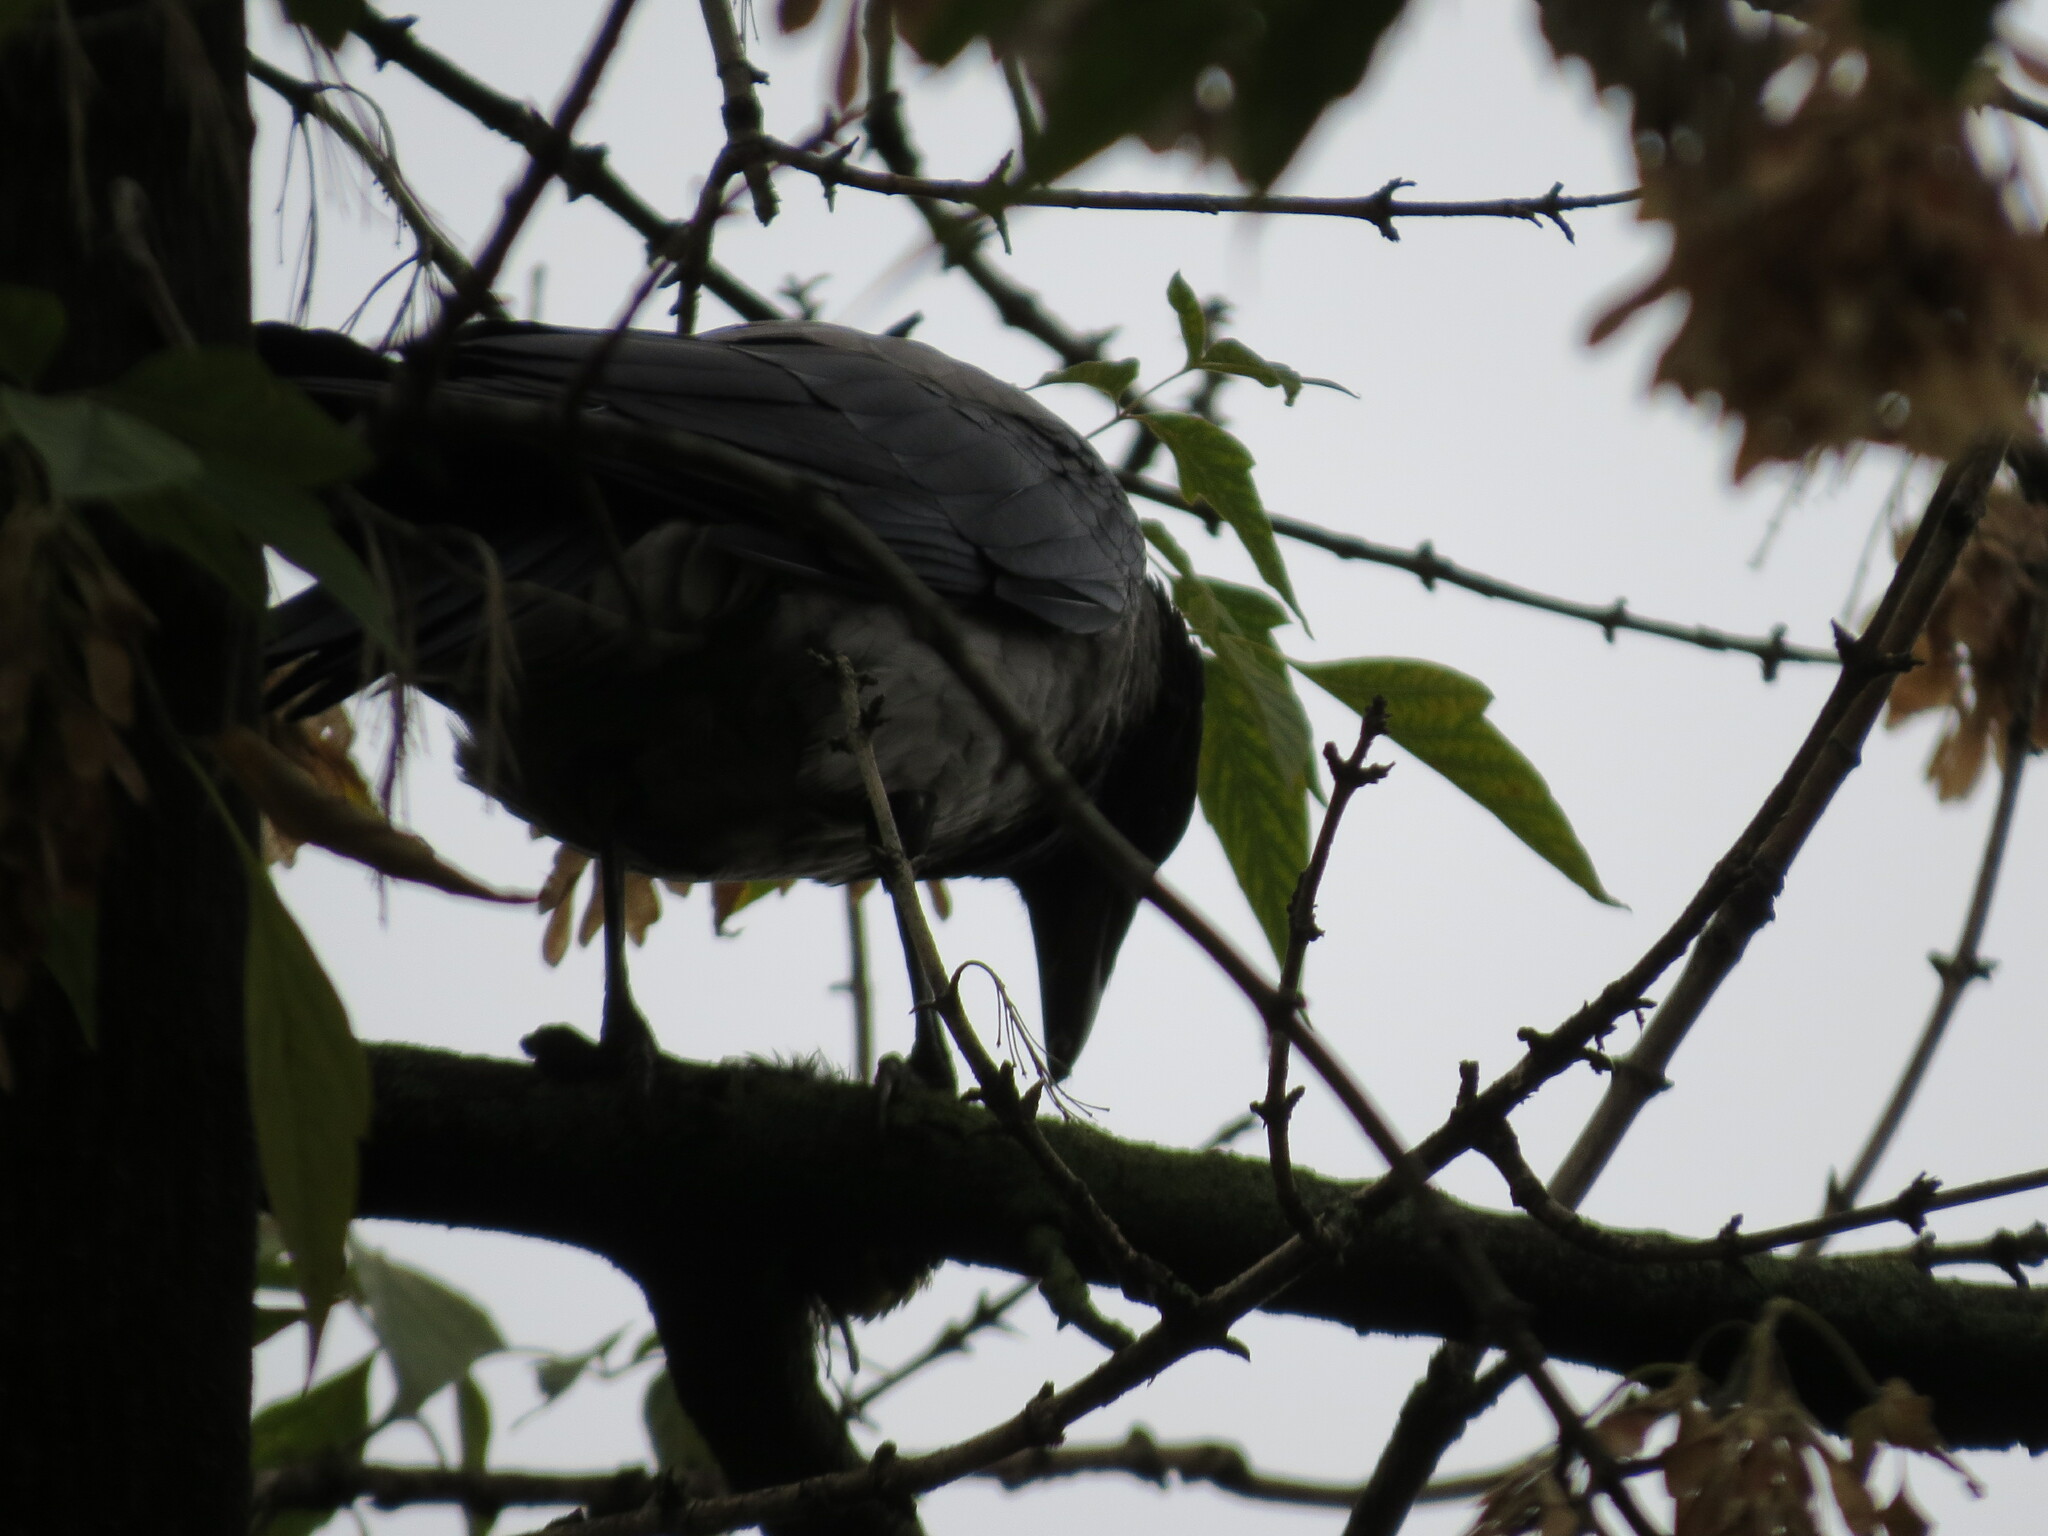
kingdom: Animalia
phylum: Chordata
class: Aves
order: Passeriformes
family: Corvidae
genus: Corvus
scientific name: Corvus cornix
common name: Hooded crow
